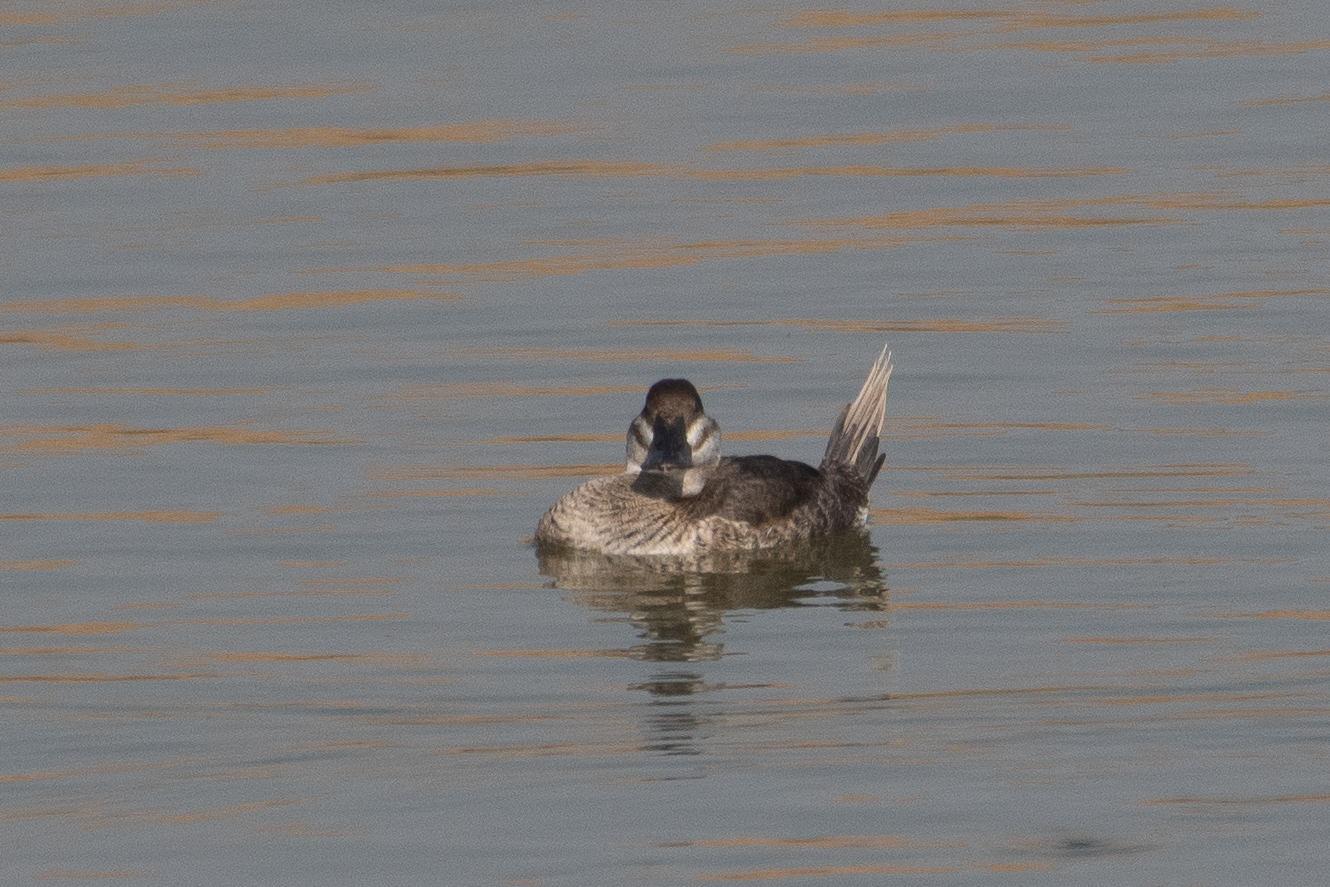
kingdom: Animalia
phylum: Chordata
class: Aves
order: Anseriformes
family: Anatidae
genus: Oxyura
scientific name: Oxyura jamaicensis
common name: Ruddy duck
